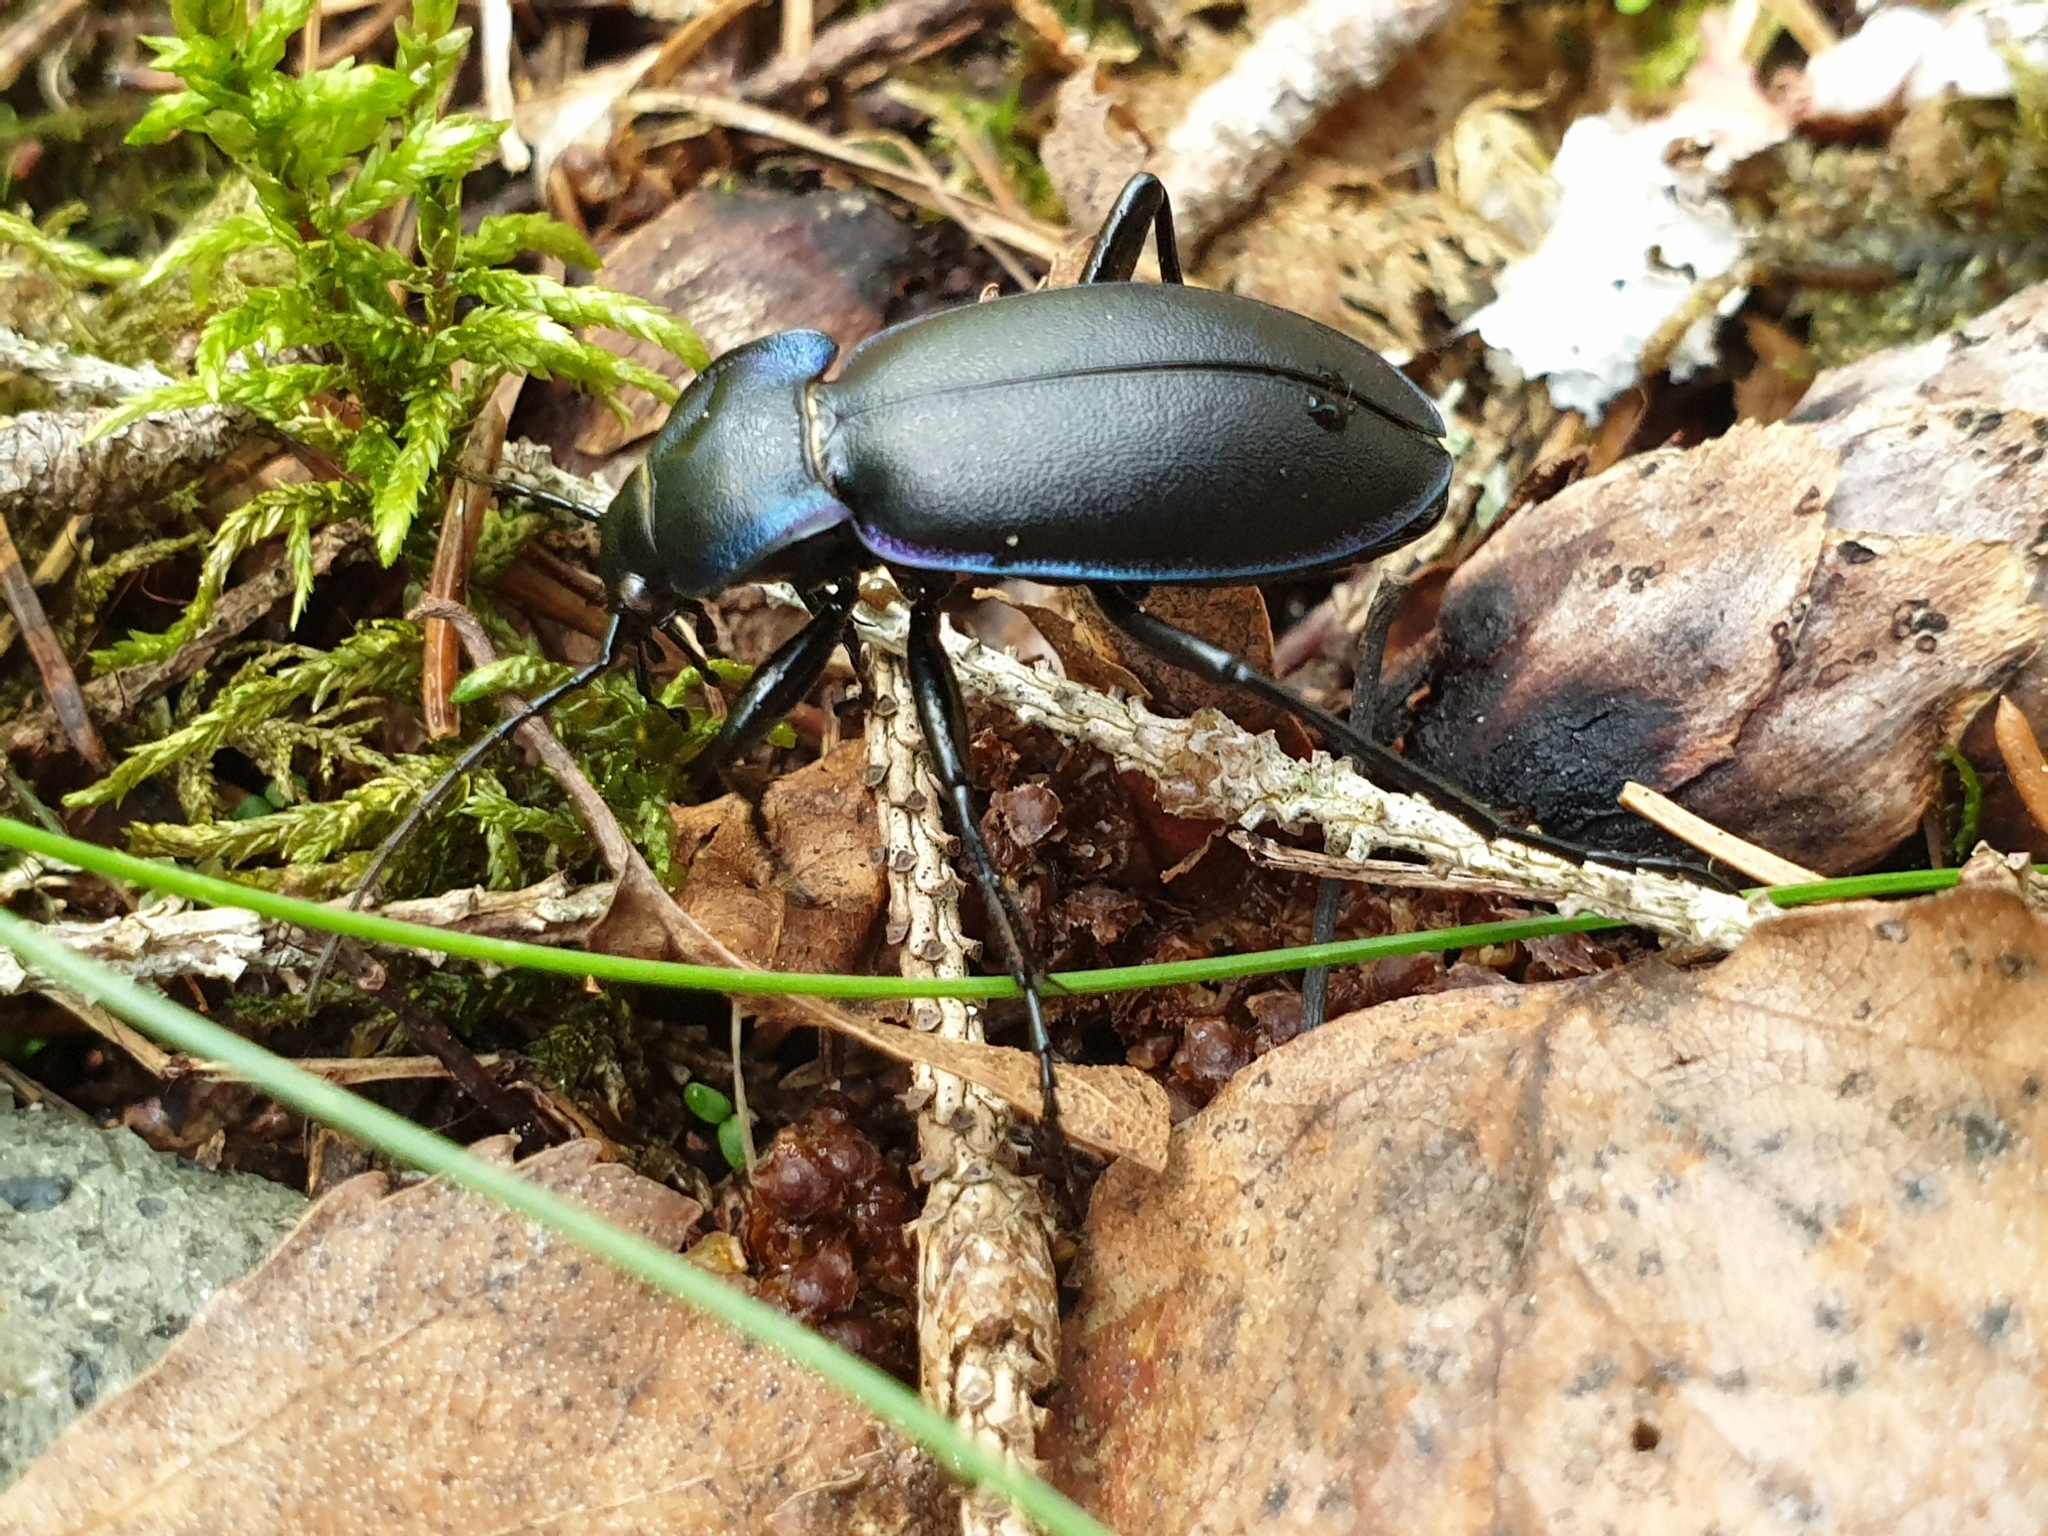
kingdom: Animalia
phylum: Arthropoda
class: Insecta
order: Coleoptera
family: Carabidae
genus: Carabus
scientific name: Carabus violaceus
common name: Violet ground beetle
